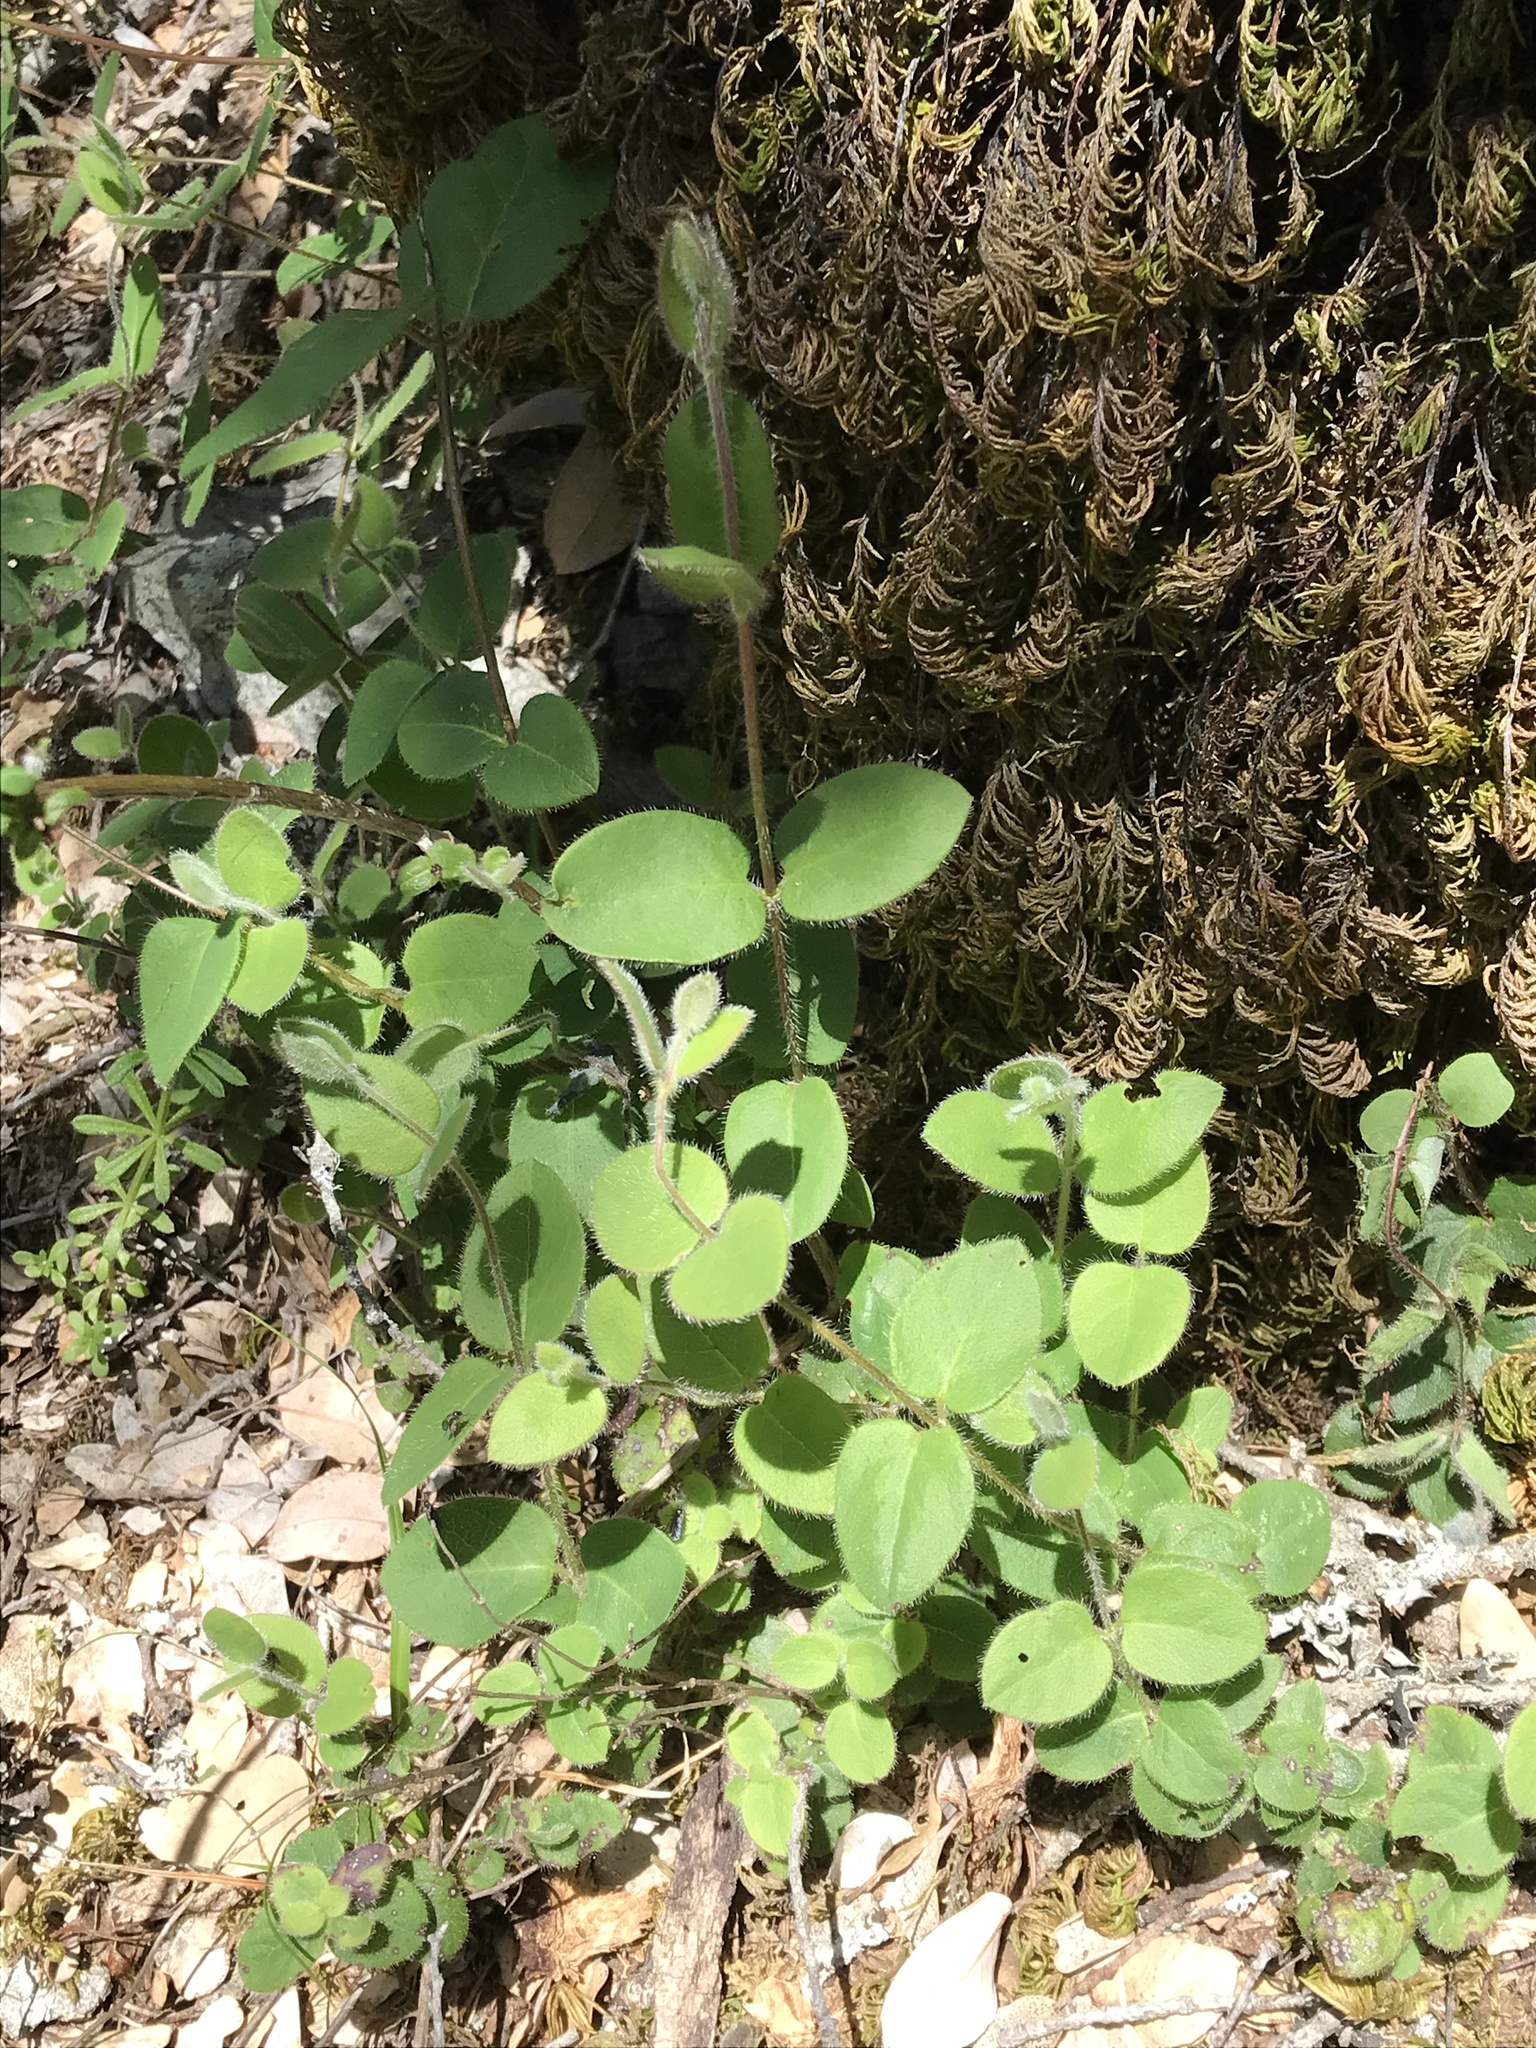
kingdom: Plantae
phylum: Tracheophyta
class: Magnoliopsida
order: Dipsacales
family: Caprifoliaceae
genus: Lonicera
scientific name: Lonicera hispidula
